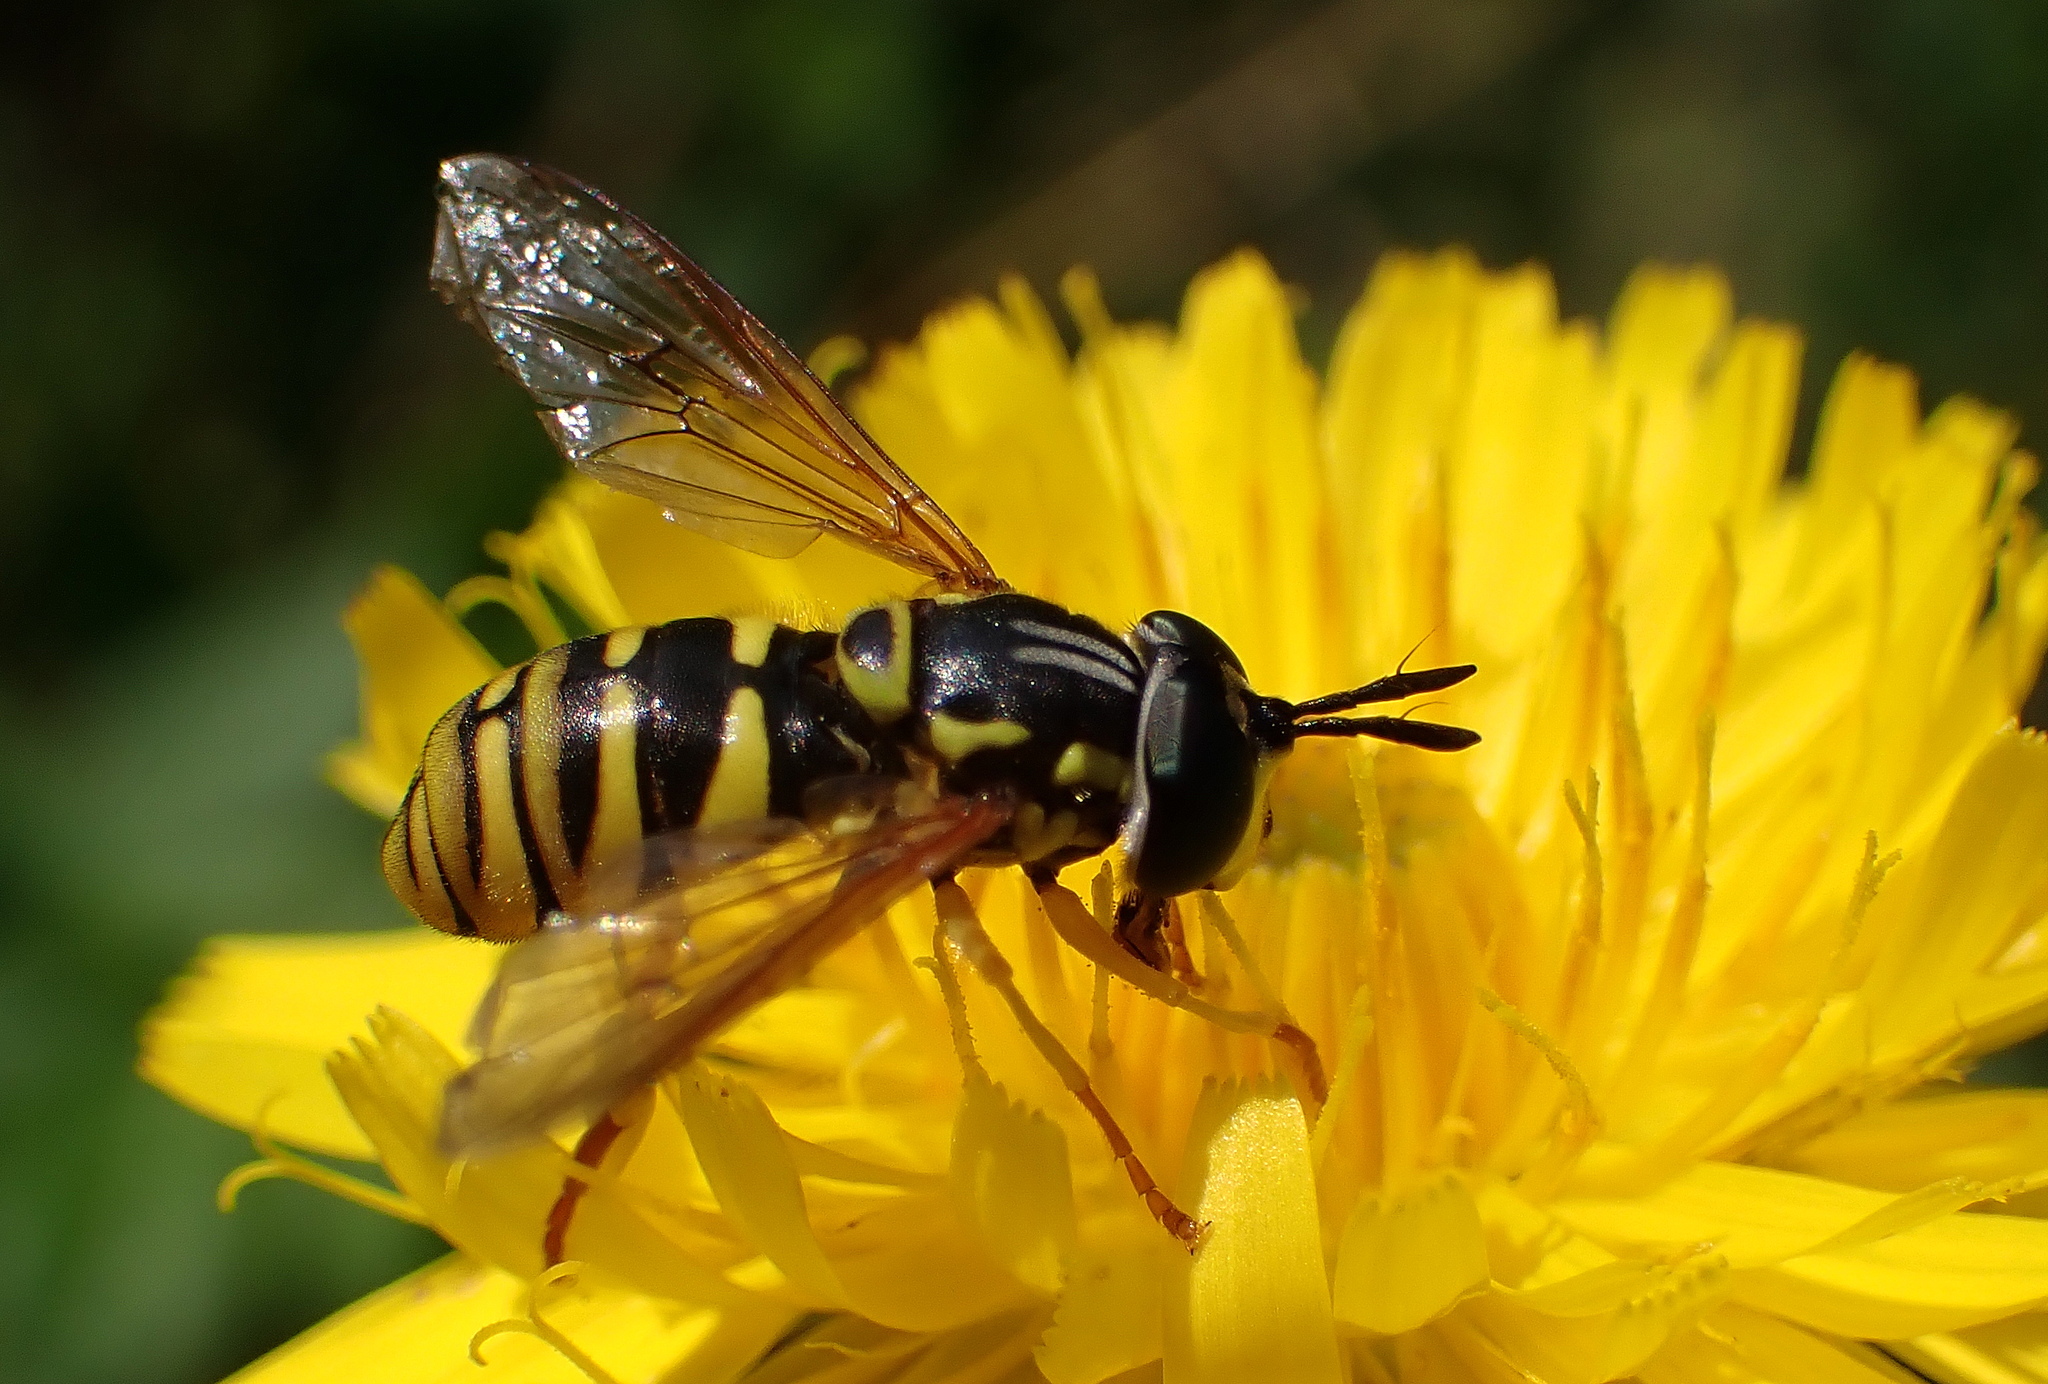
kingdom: Animalia
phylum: Arthropoda
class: Insecta
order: Diptera
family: Syrphidae
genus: Chrysotoxum
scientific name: Chrysotoxum verralli
